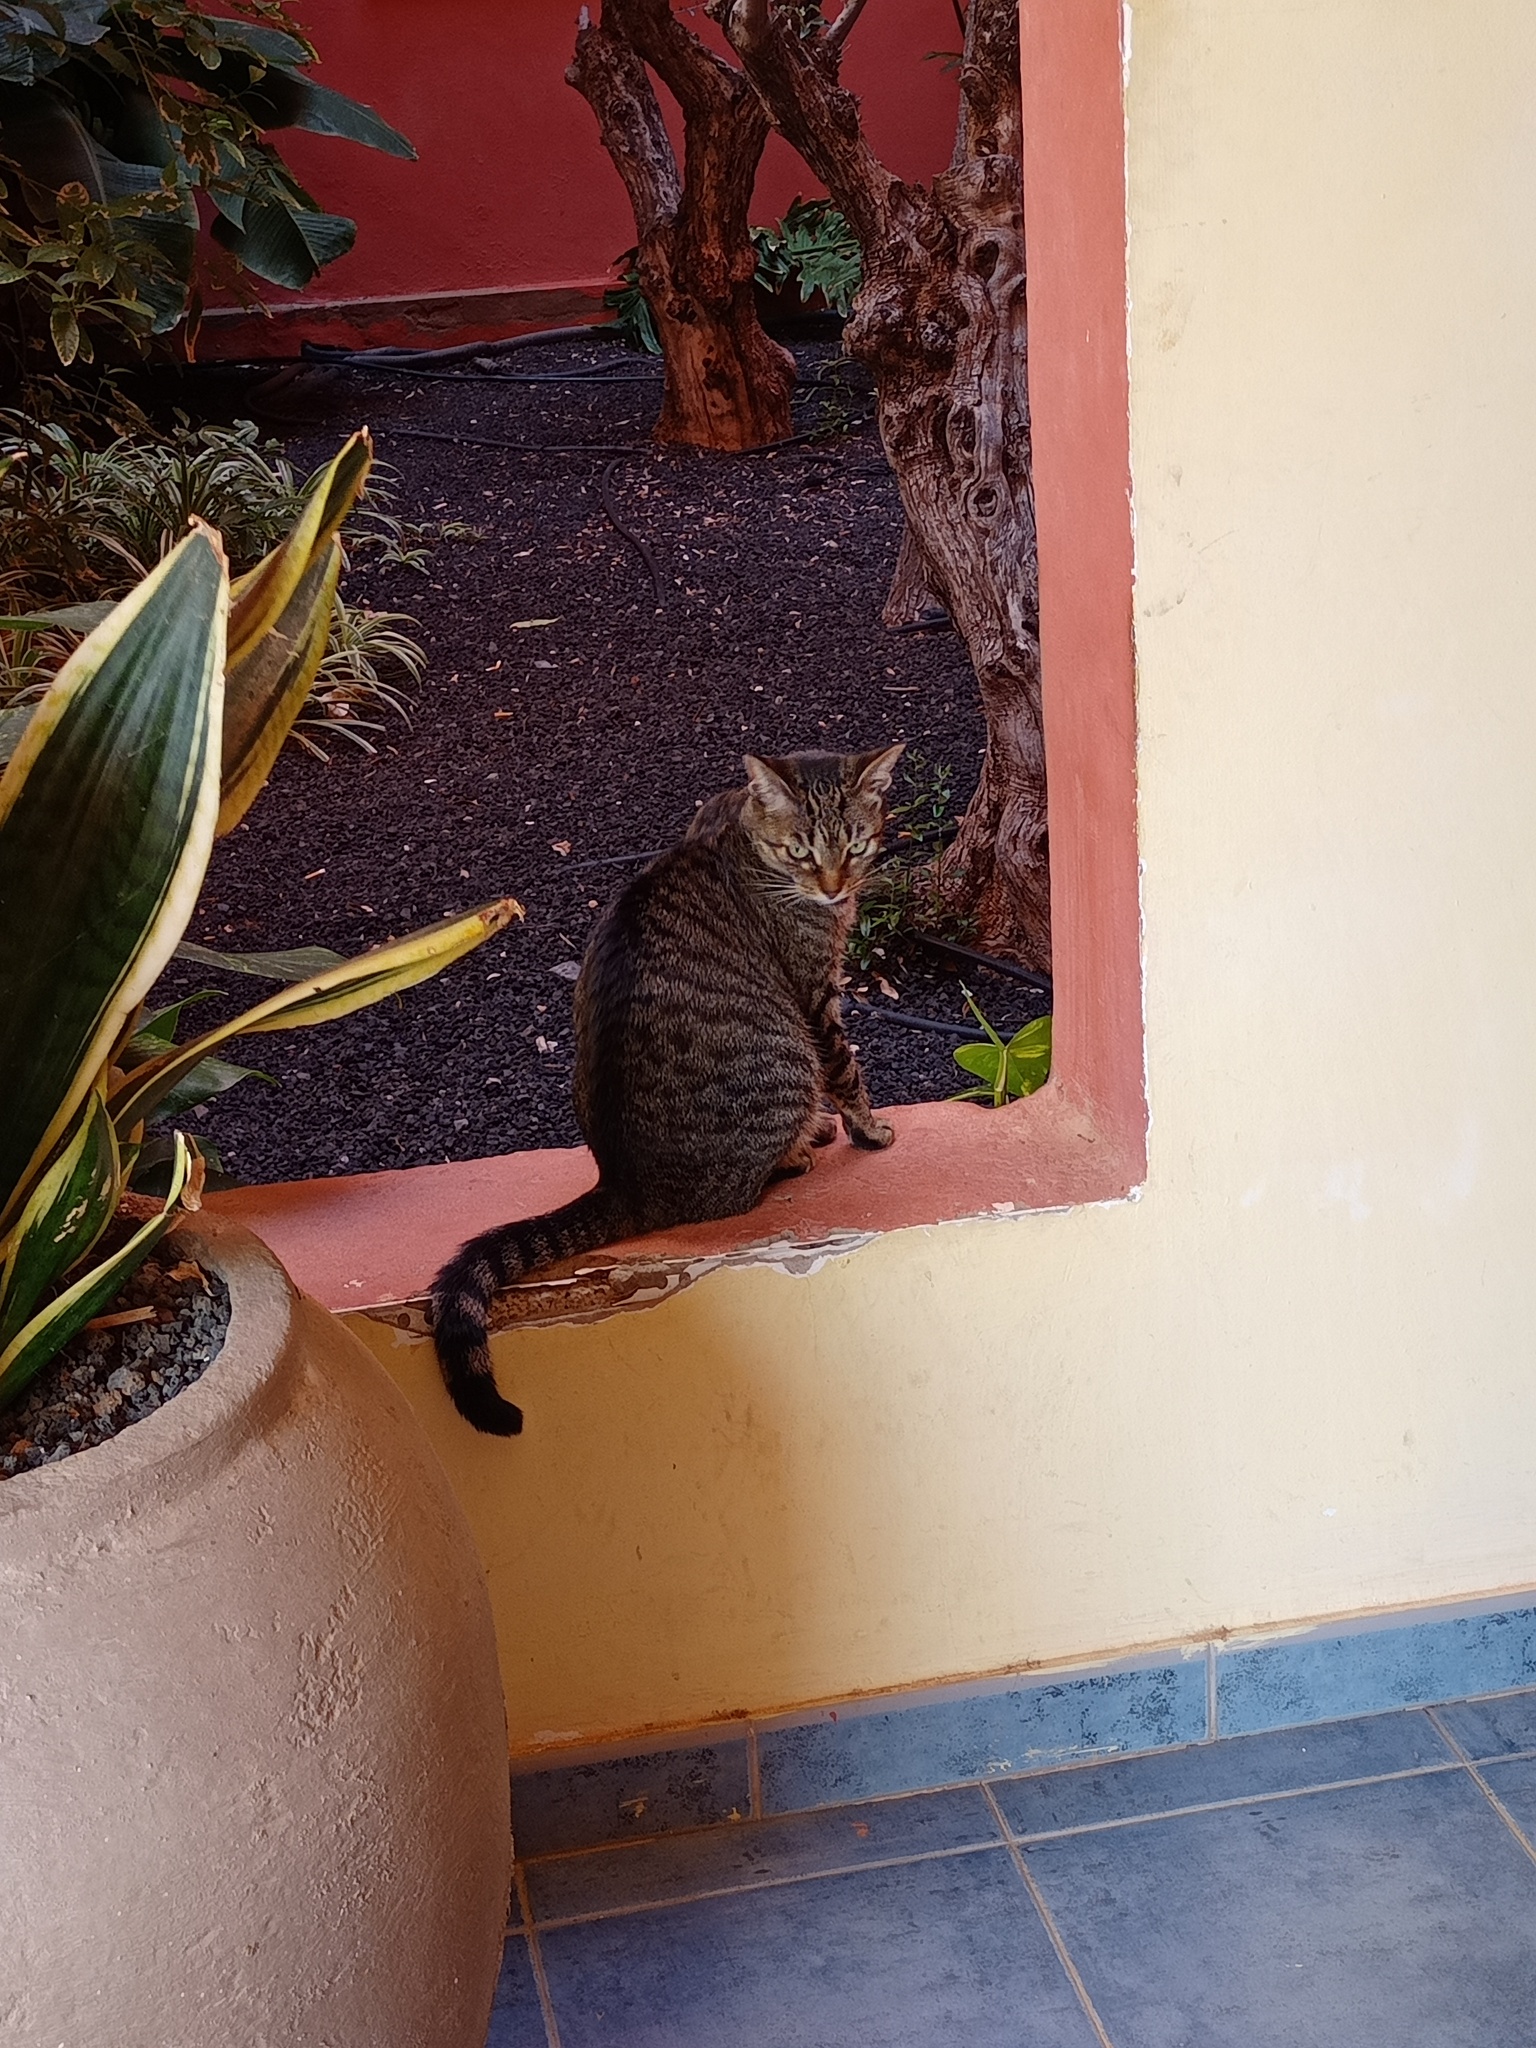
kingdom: Animalia
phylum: Chordata
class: Mammalia
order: Carnivora
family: Felidae
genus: Felis
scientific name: Felis catus
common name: Domestic cat
